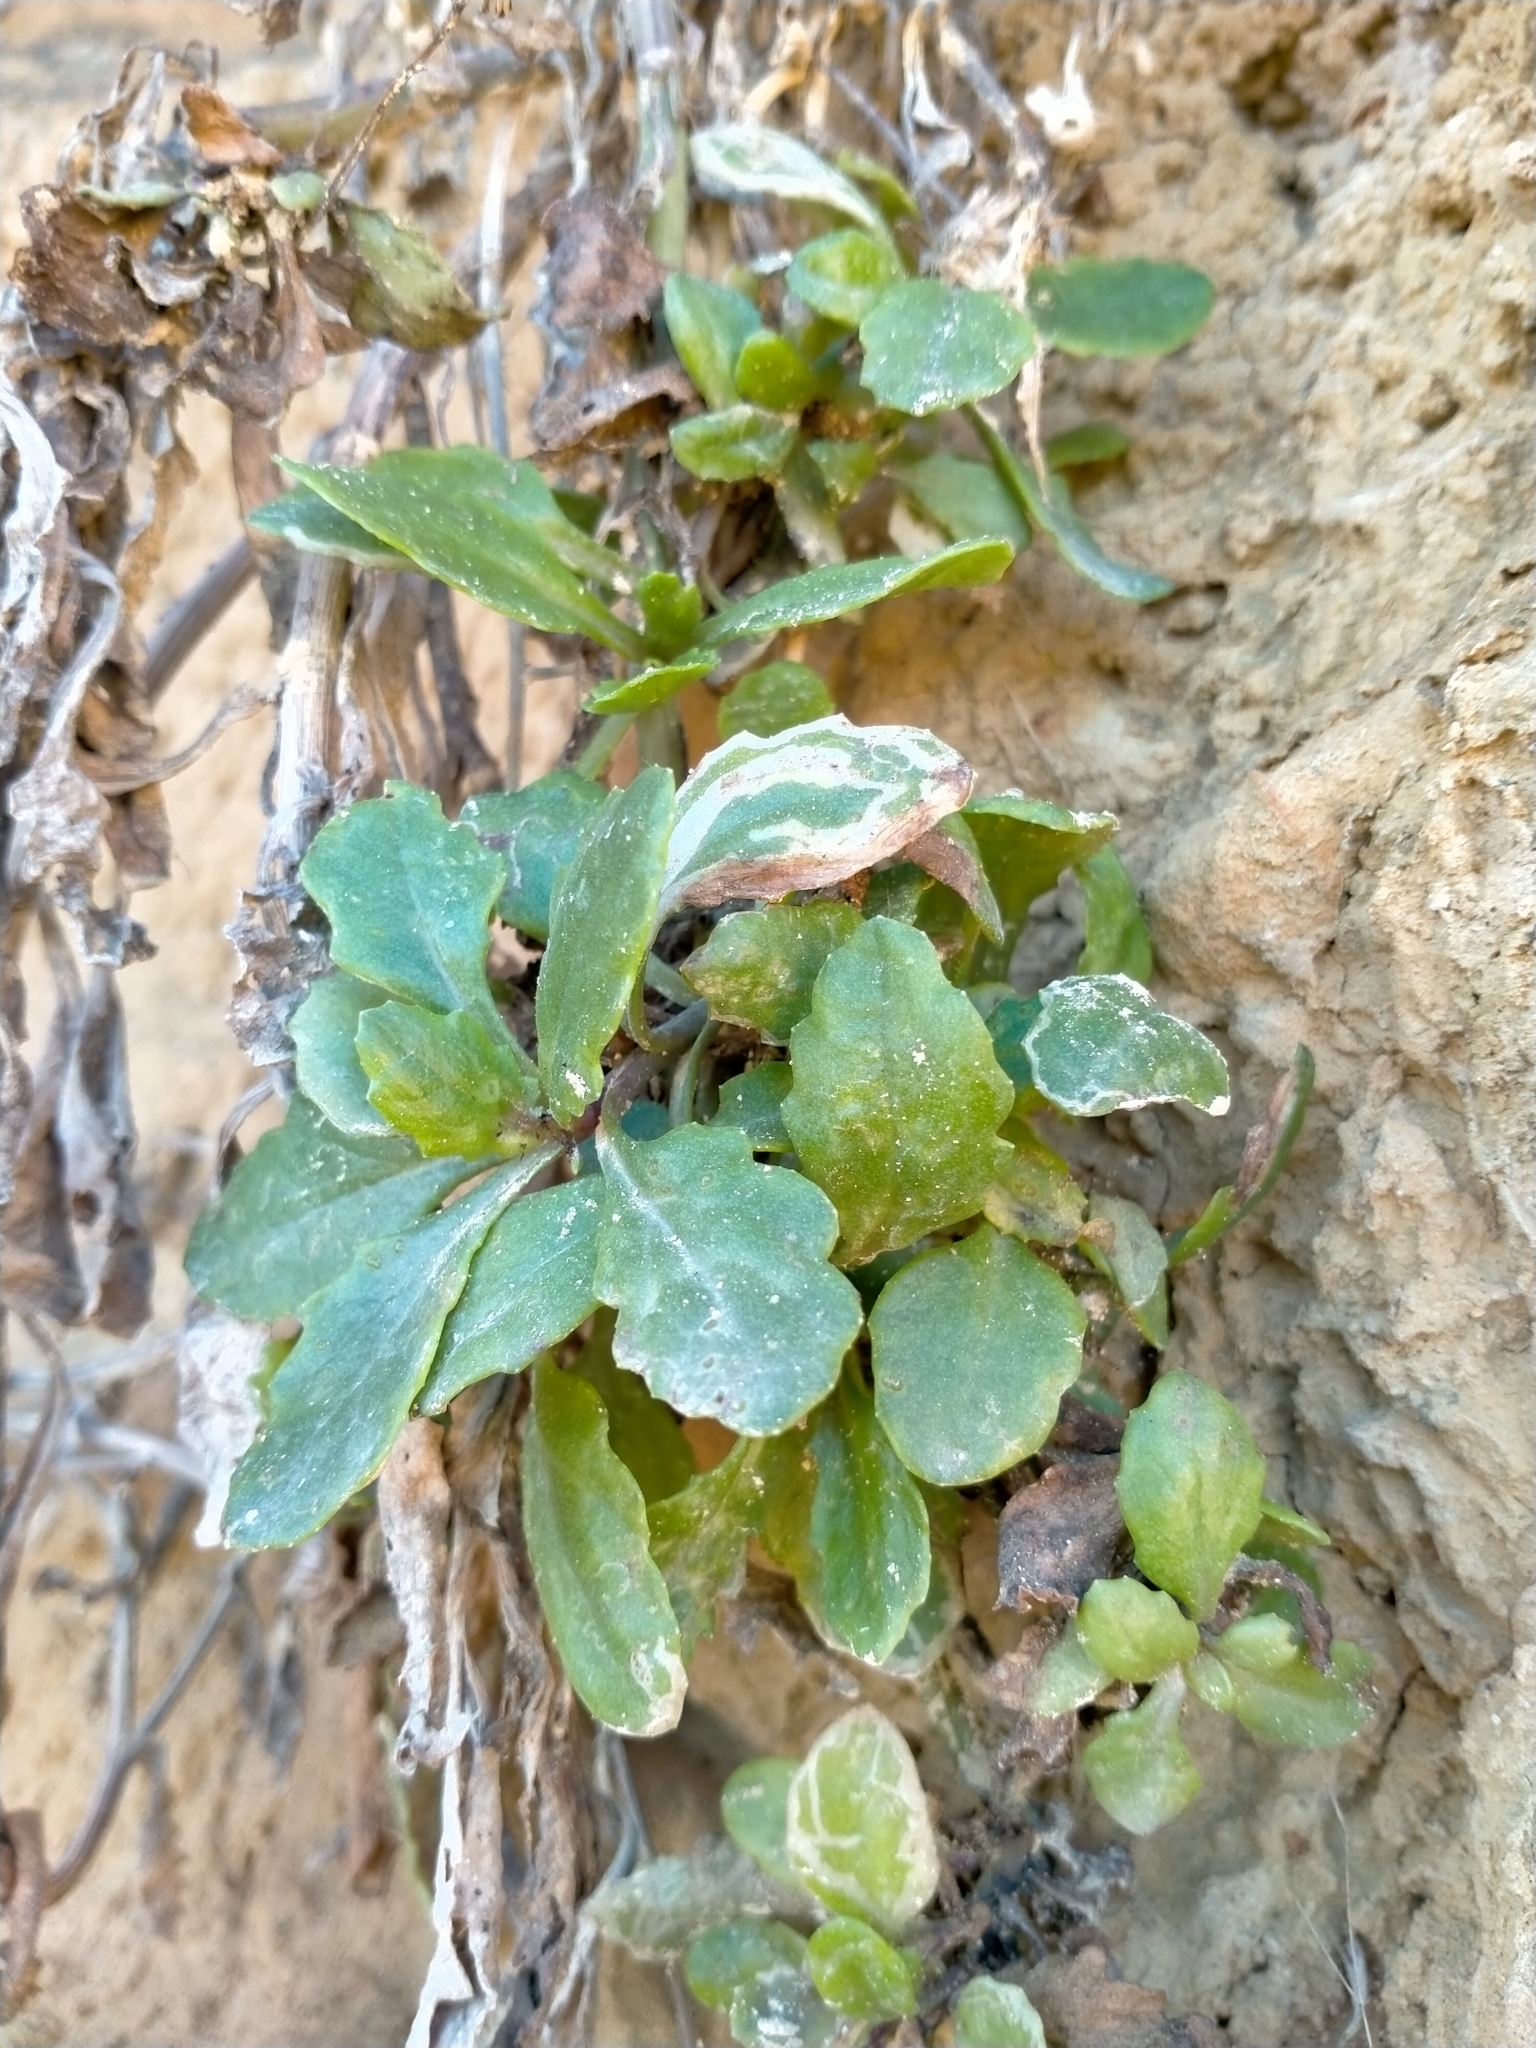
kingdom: Plantae
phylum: Tracheophyta
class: Magnoliopsida
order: Asterales
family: Asteraceae
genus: Senecio
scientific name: Senecio matatini
